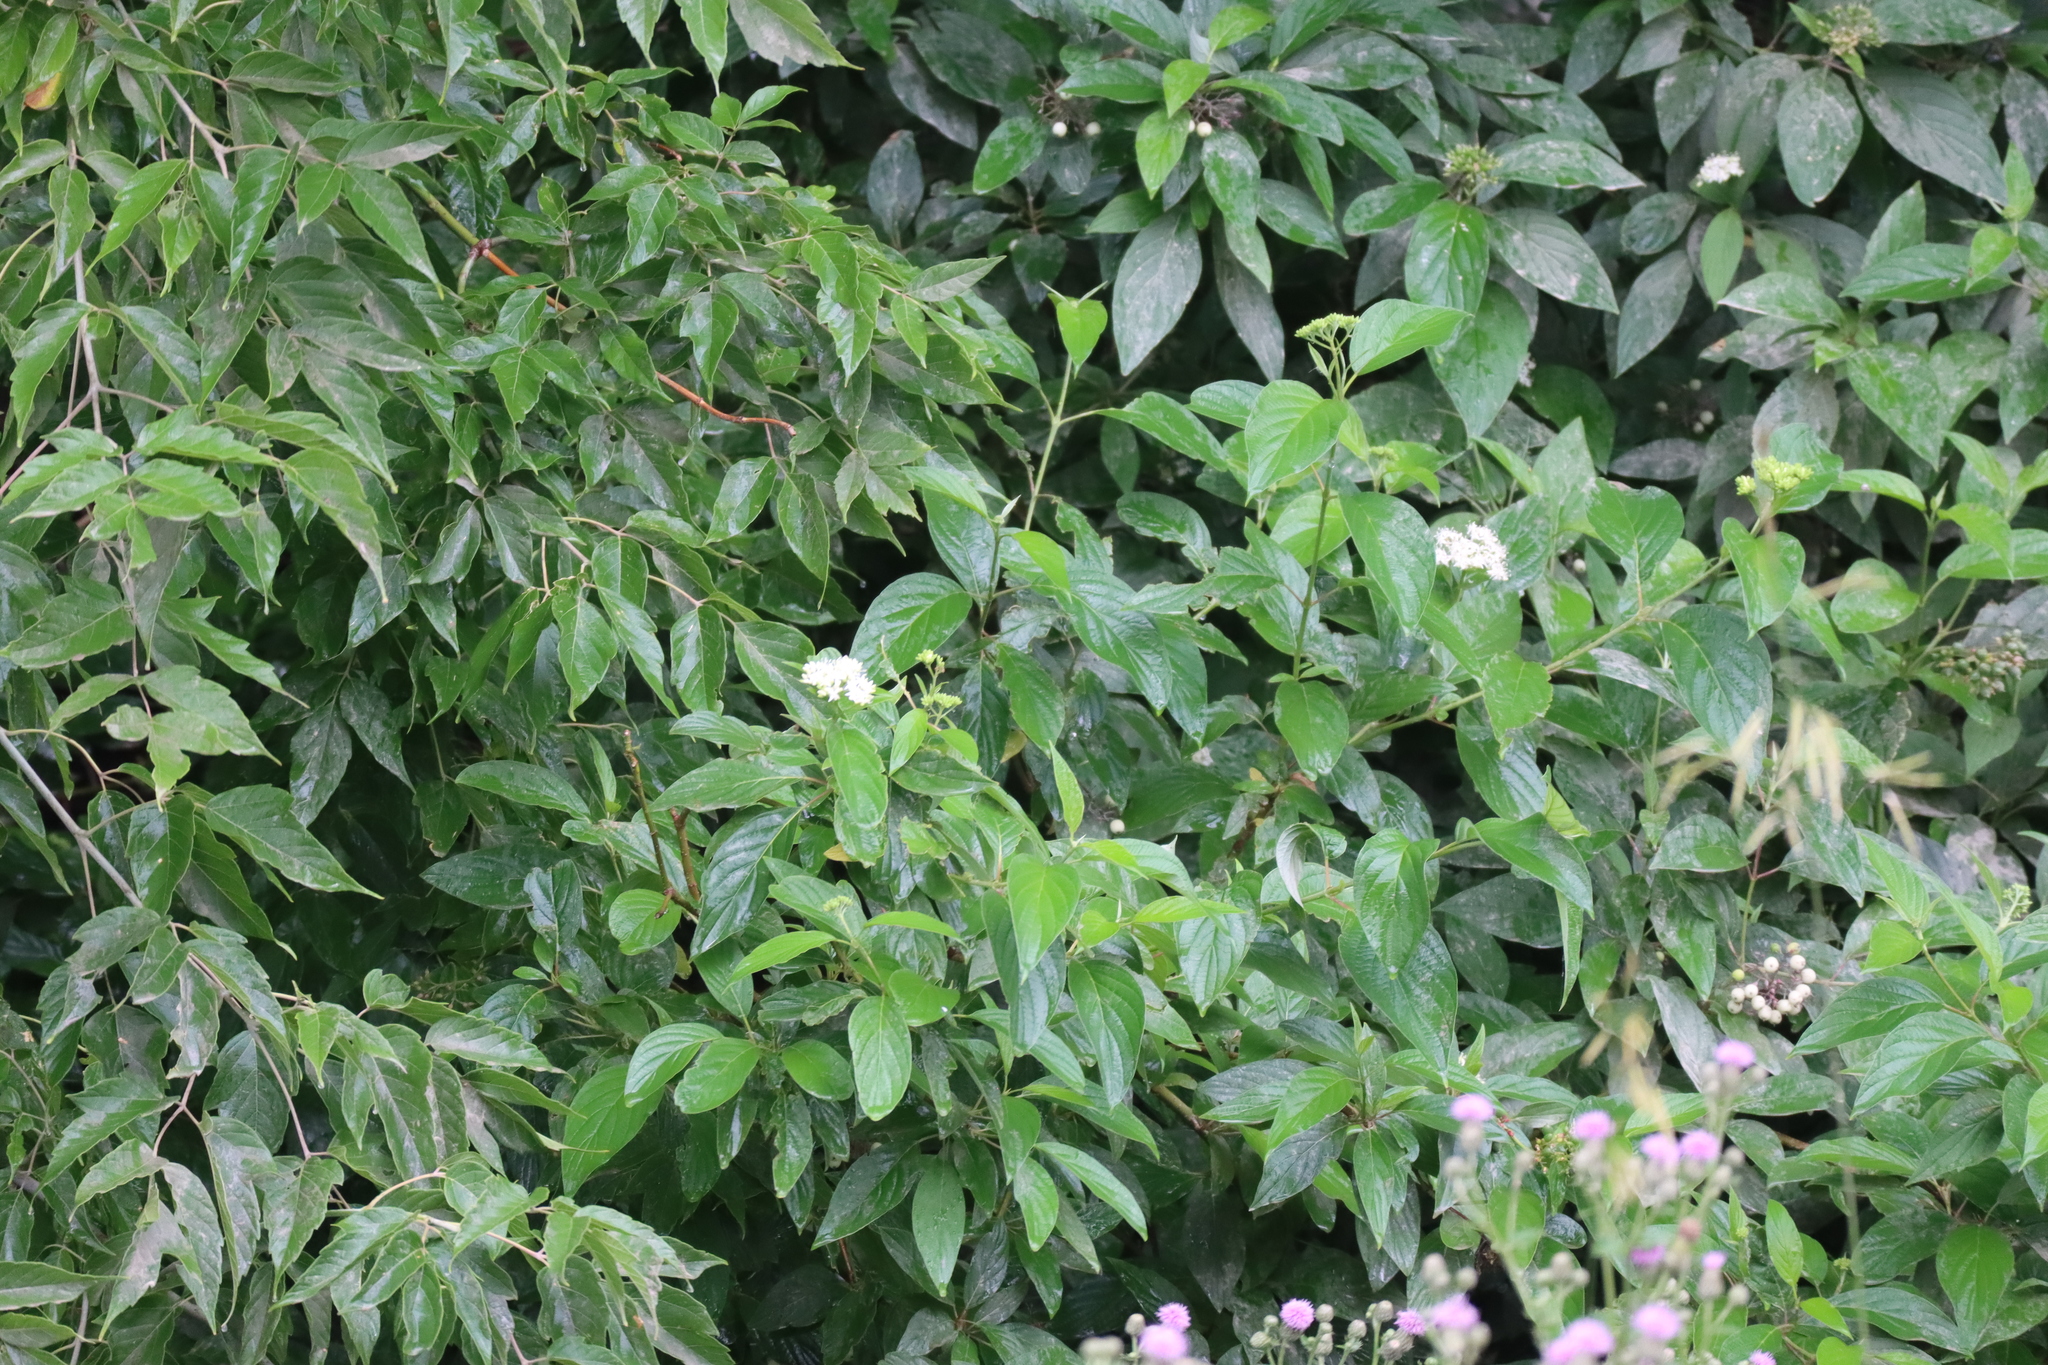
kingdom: Plantae
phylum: Tracheophyta
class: Magnoliopsida
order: Cornales
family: Cornaceae
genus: Cornus
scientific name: Cornus sericea
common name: Red-osier dogwood
